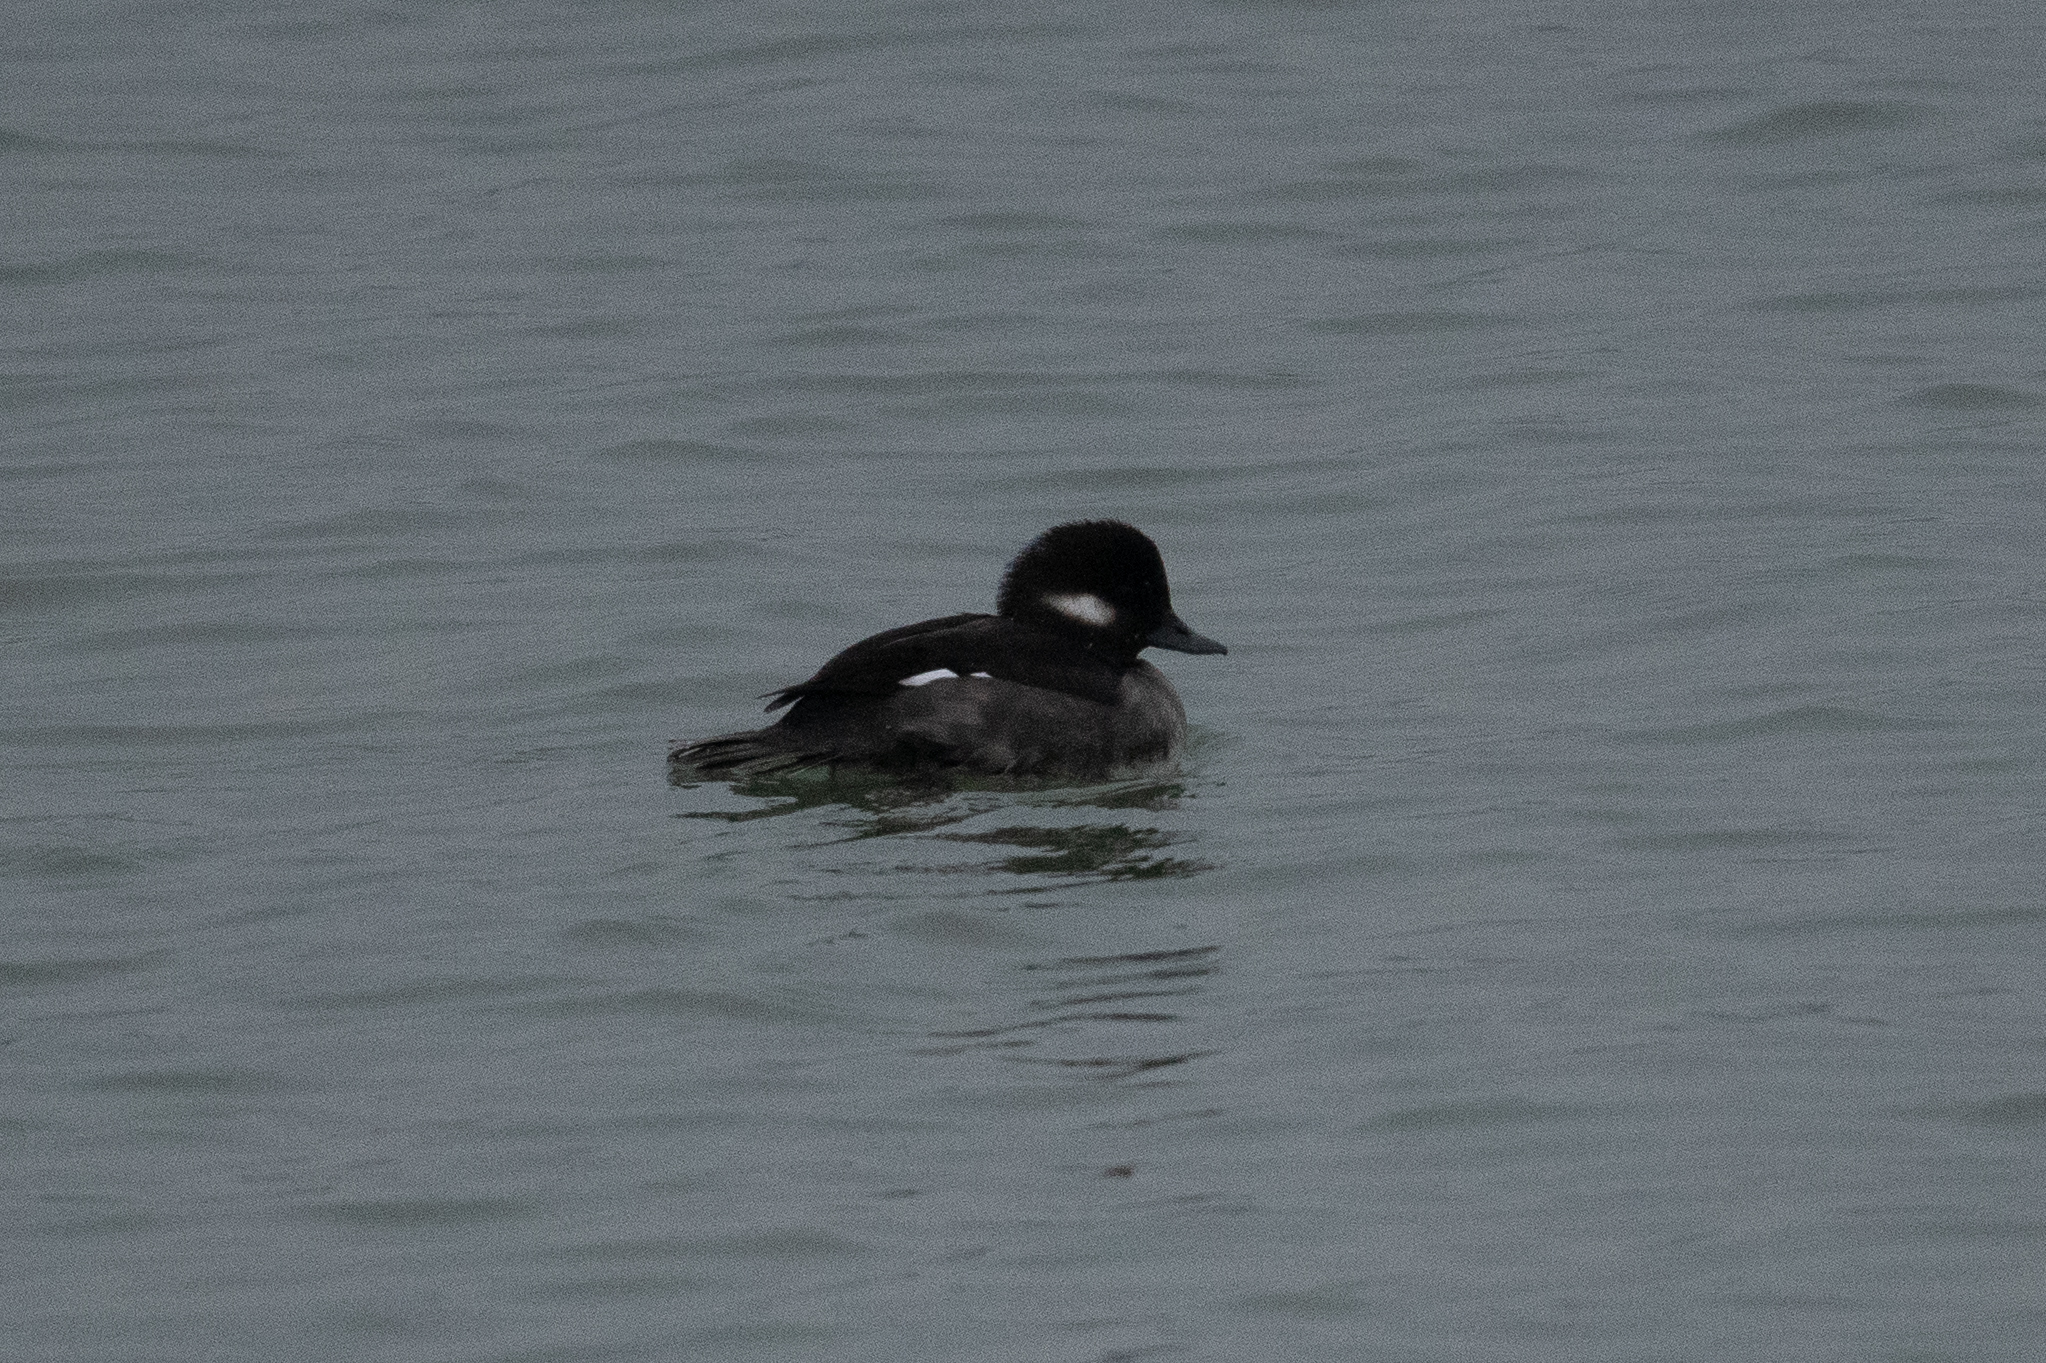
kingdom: Animalia
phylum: Chordata
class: Aves
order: Anseriformes
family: Anatidae
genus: Bucephala
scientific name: Bucephala albeola
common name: Bufflehead
